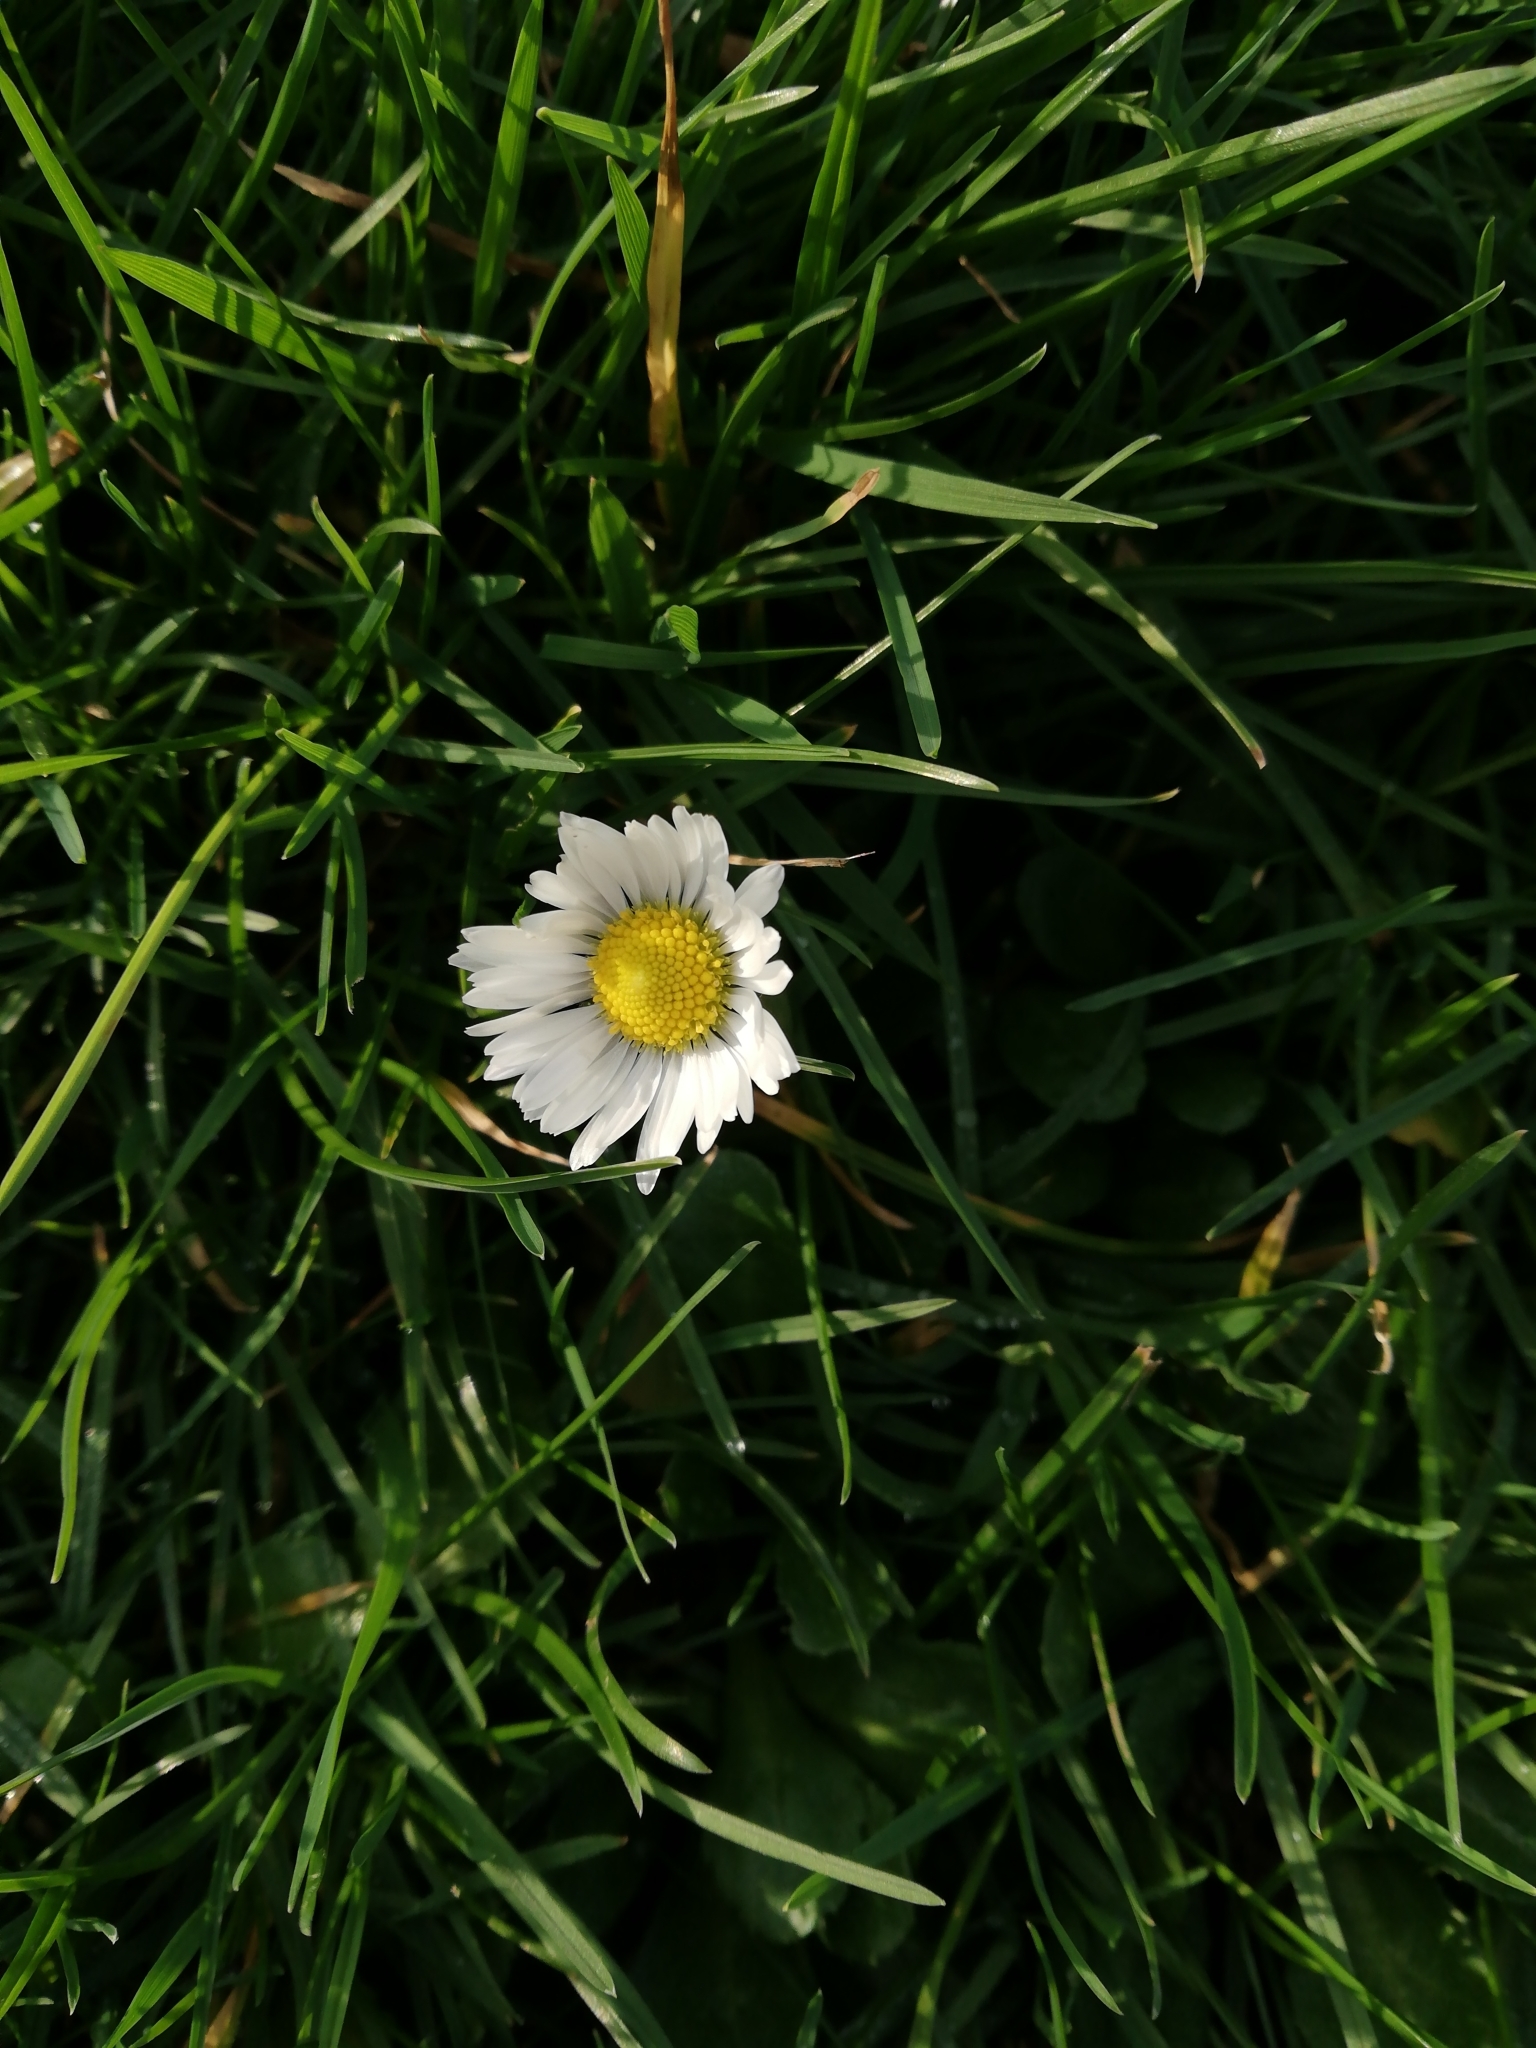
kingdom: Plantae
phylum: Tracheophyta
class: Magnoliopsida
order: Asterales
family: Asteraceae
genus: Bellis
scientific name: Bellis perennis
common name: Lawndaisy
